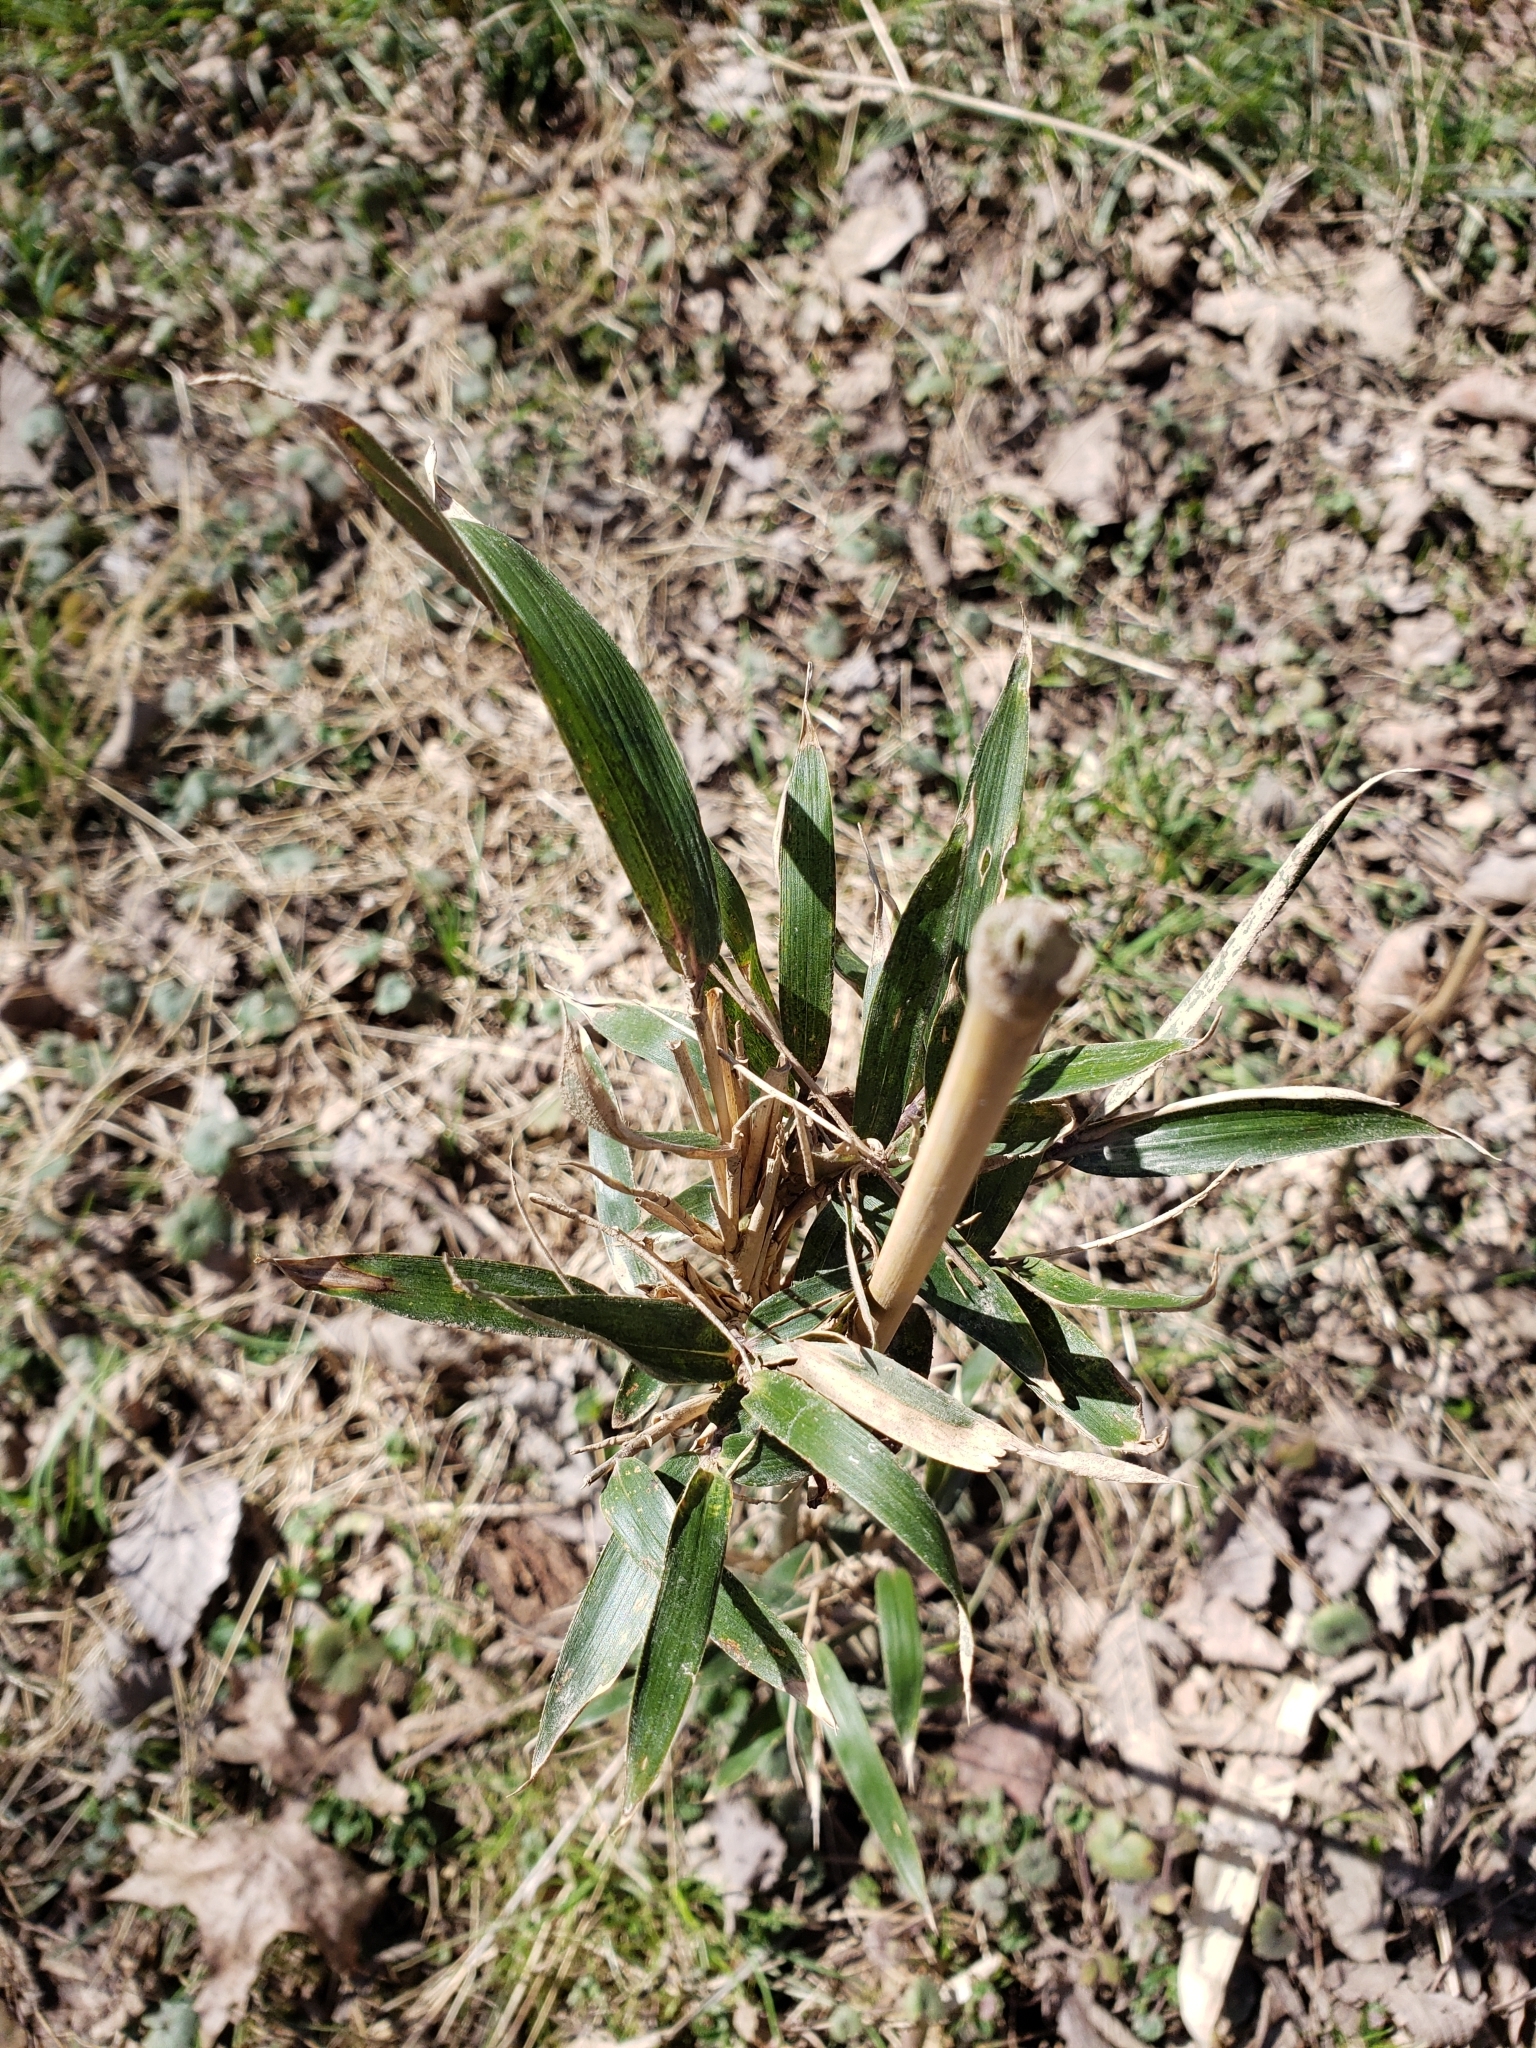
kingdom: Plantae
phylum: Tracheophyta
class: Liliopsida
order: Poales
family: Poaceae
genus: Arundinaria
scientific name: Arundinaria gigantea
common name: Giant cane
